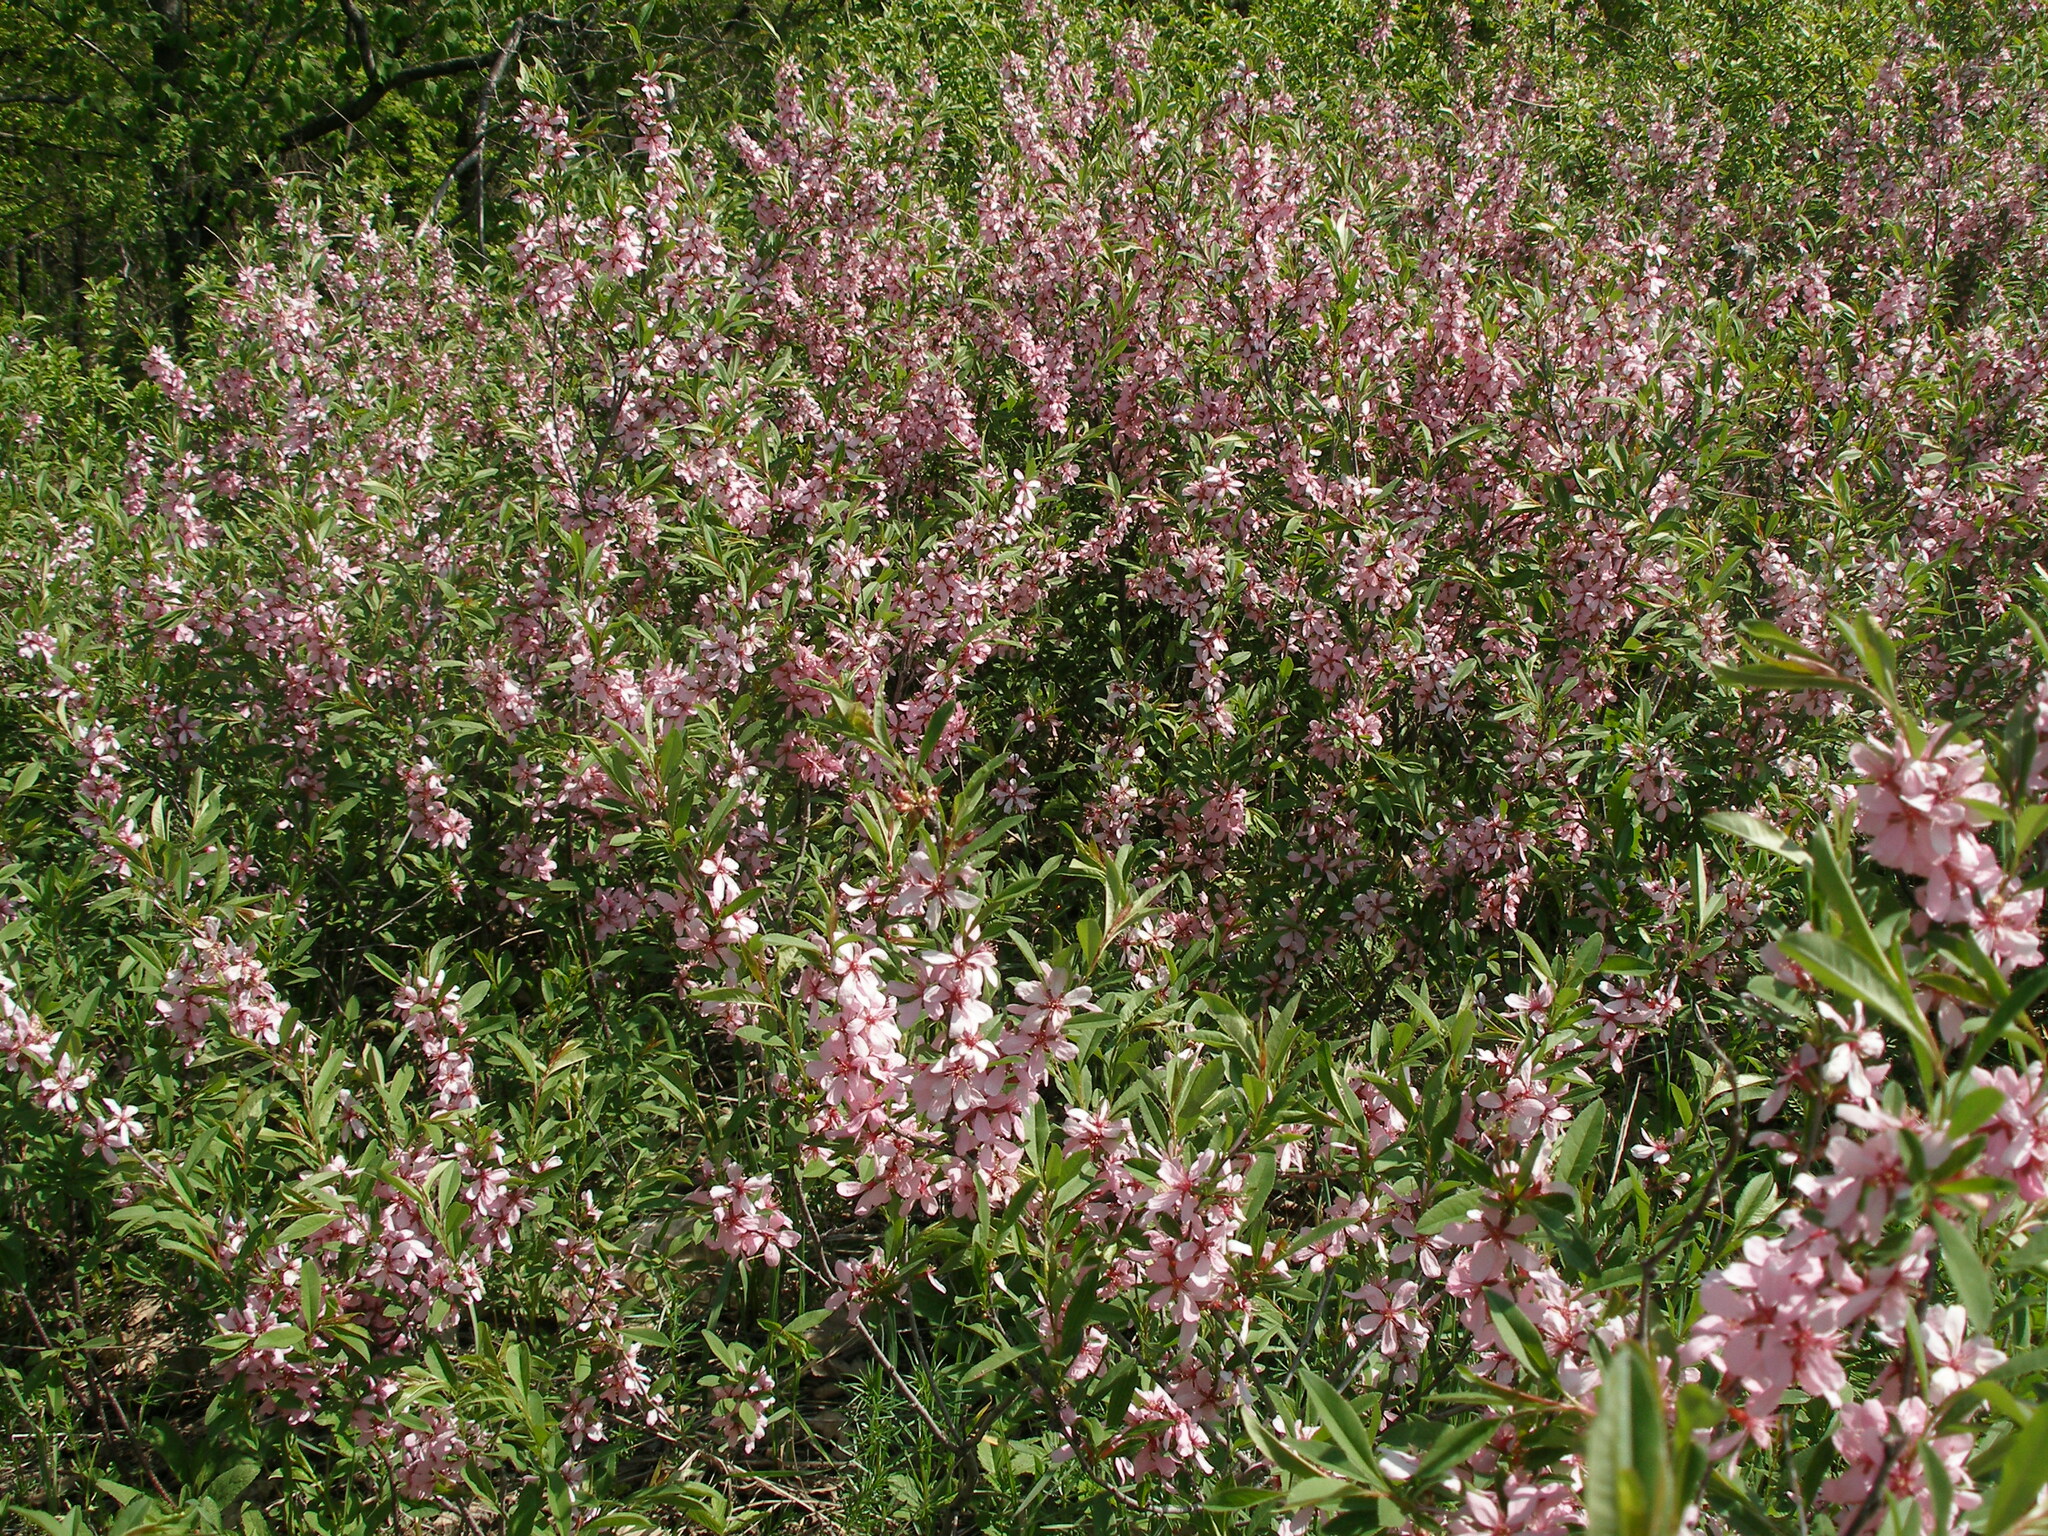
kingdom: Plantae
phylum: Tracheophyta
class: Magnoliopsida
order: Rosales
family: Rosaceae
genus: Prunus
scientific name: Prunus tenella
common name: Dwarf russian almond
